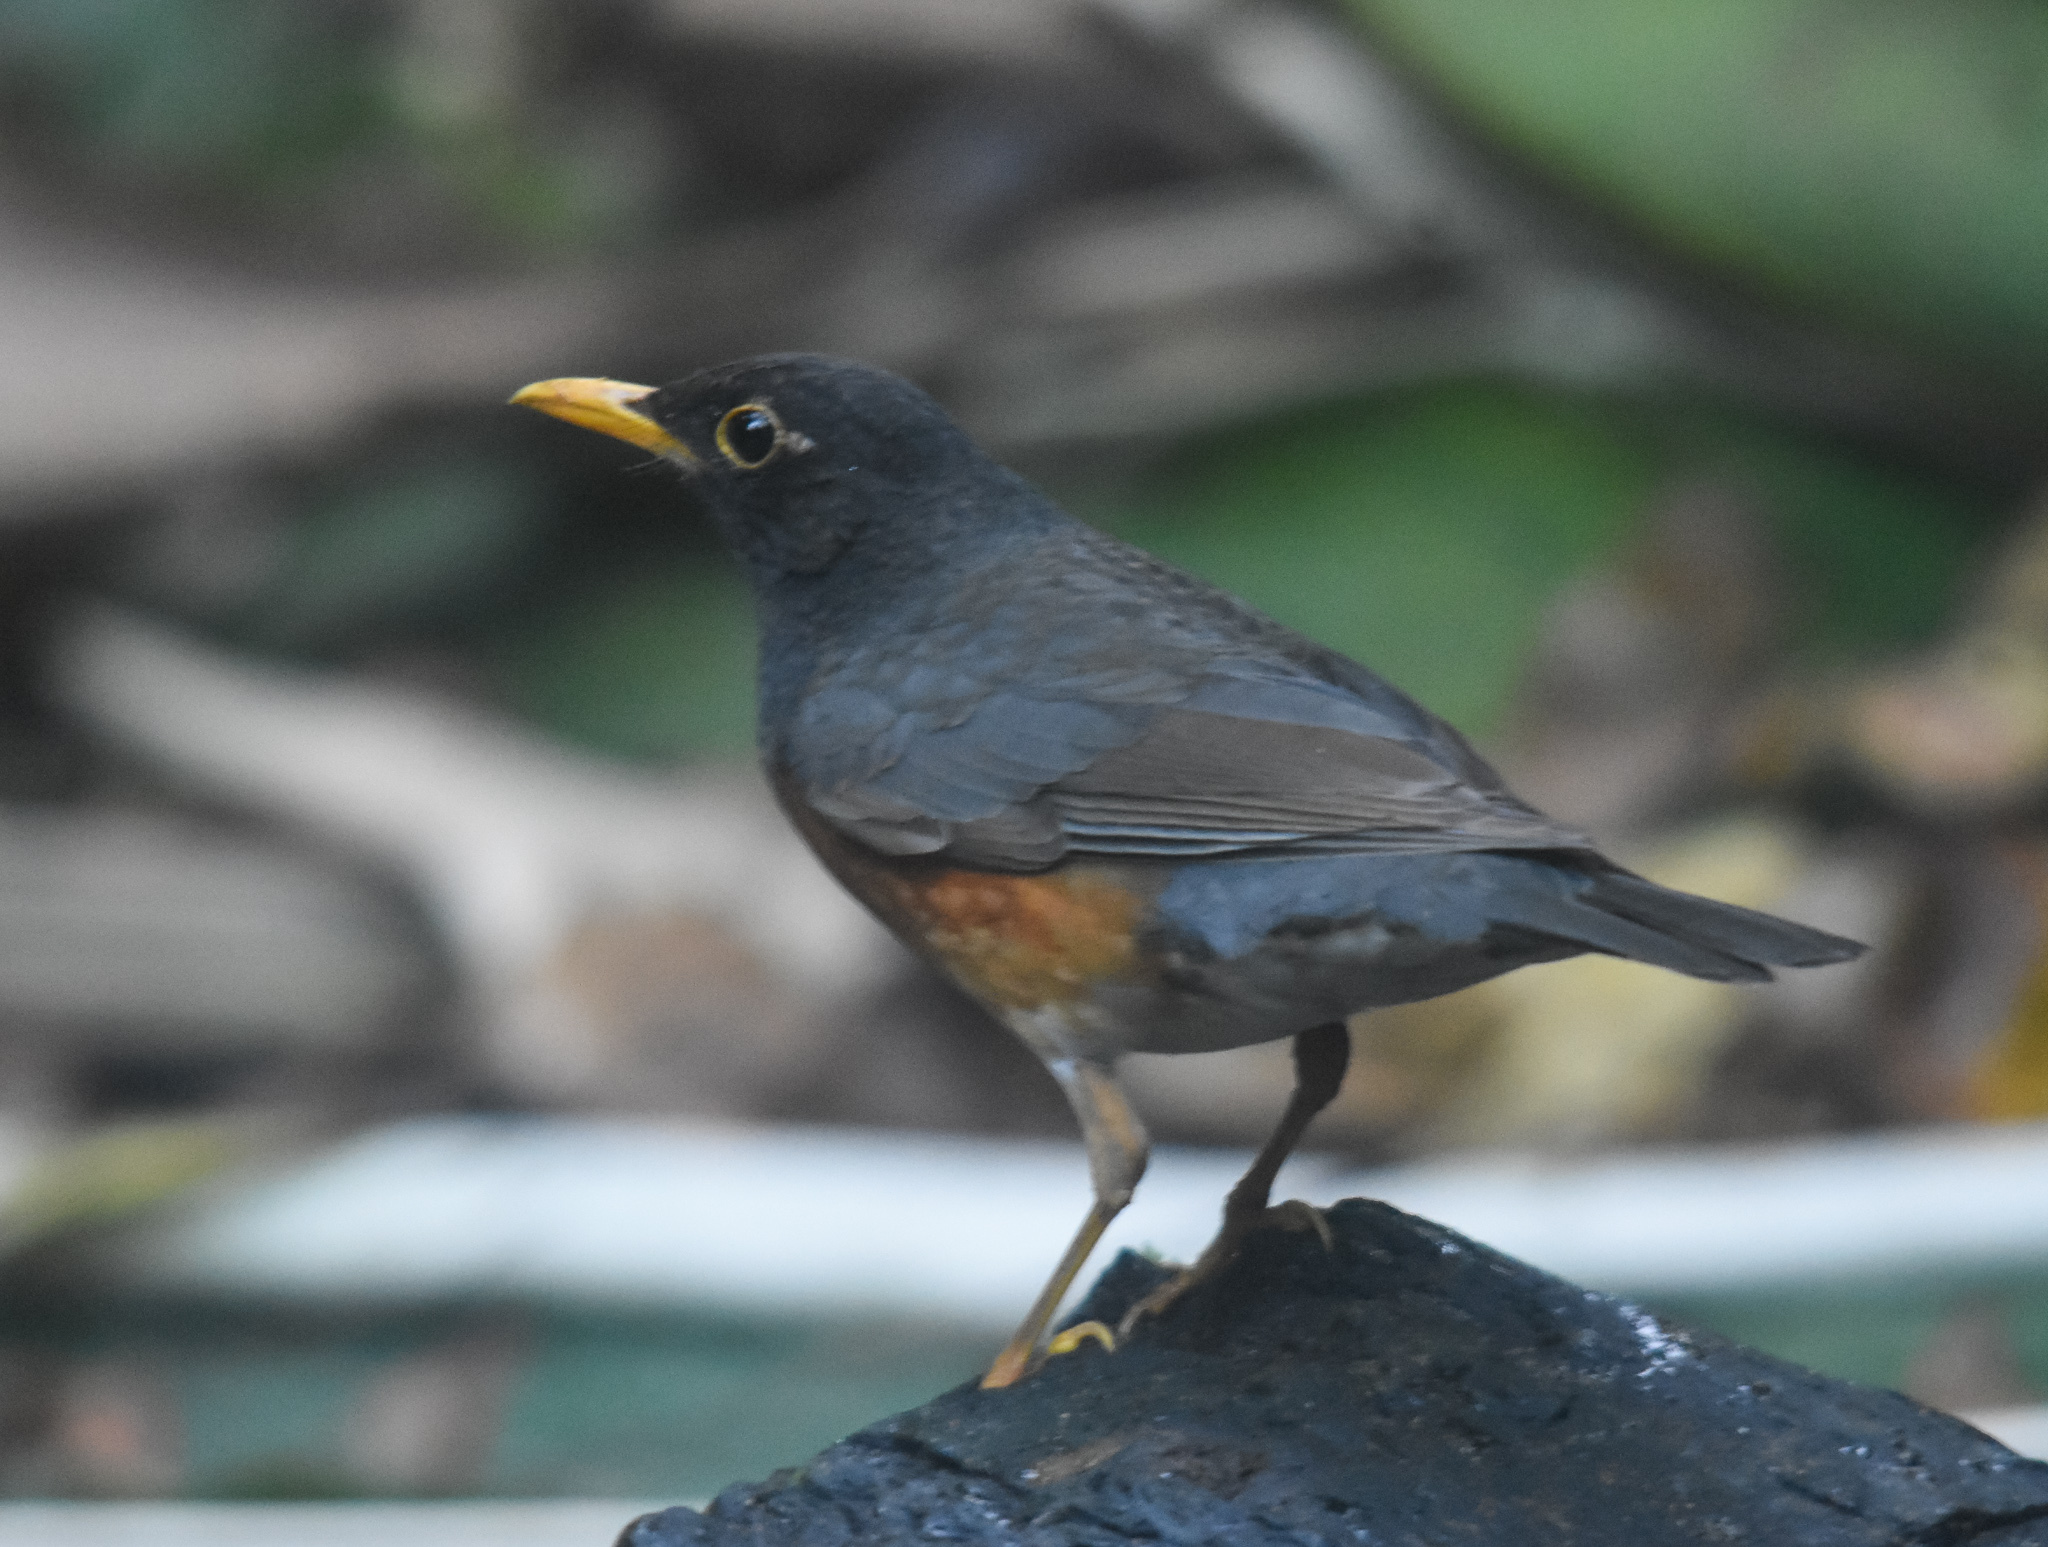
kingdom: Animalia
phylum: Chordata
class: Aves
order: Passeriformes
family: Turdidae
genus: Turdus
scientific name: Turdus dissimilis
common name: Black-breasted thrush
